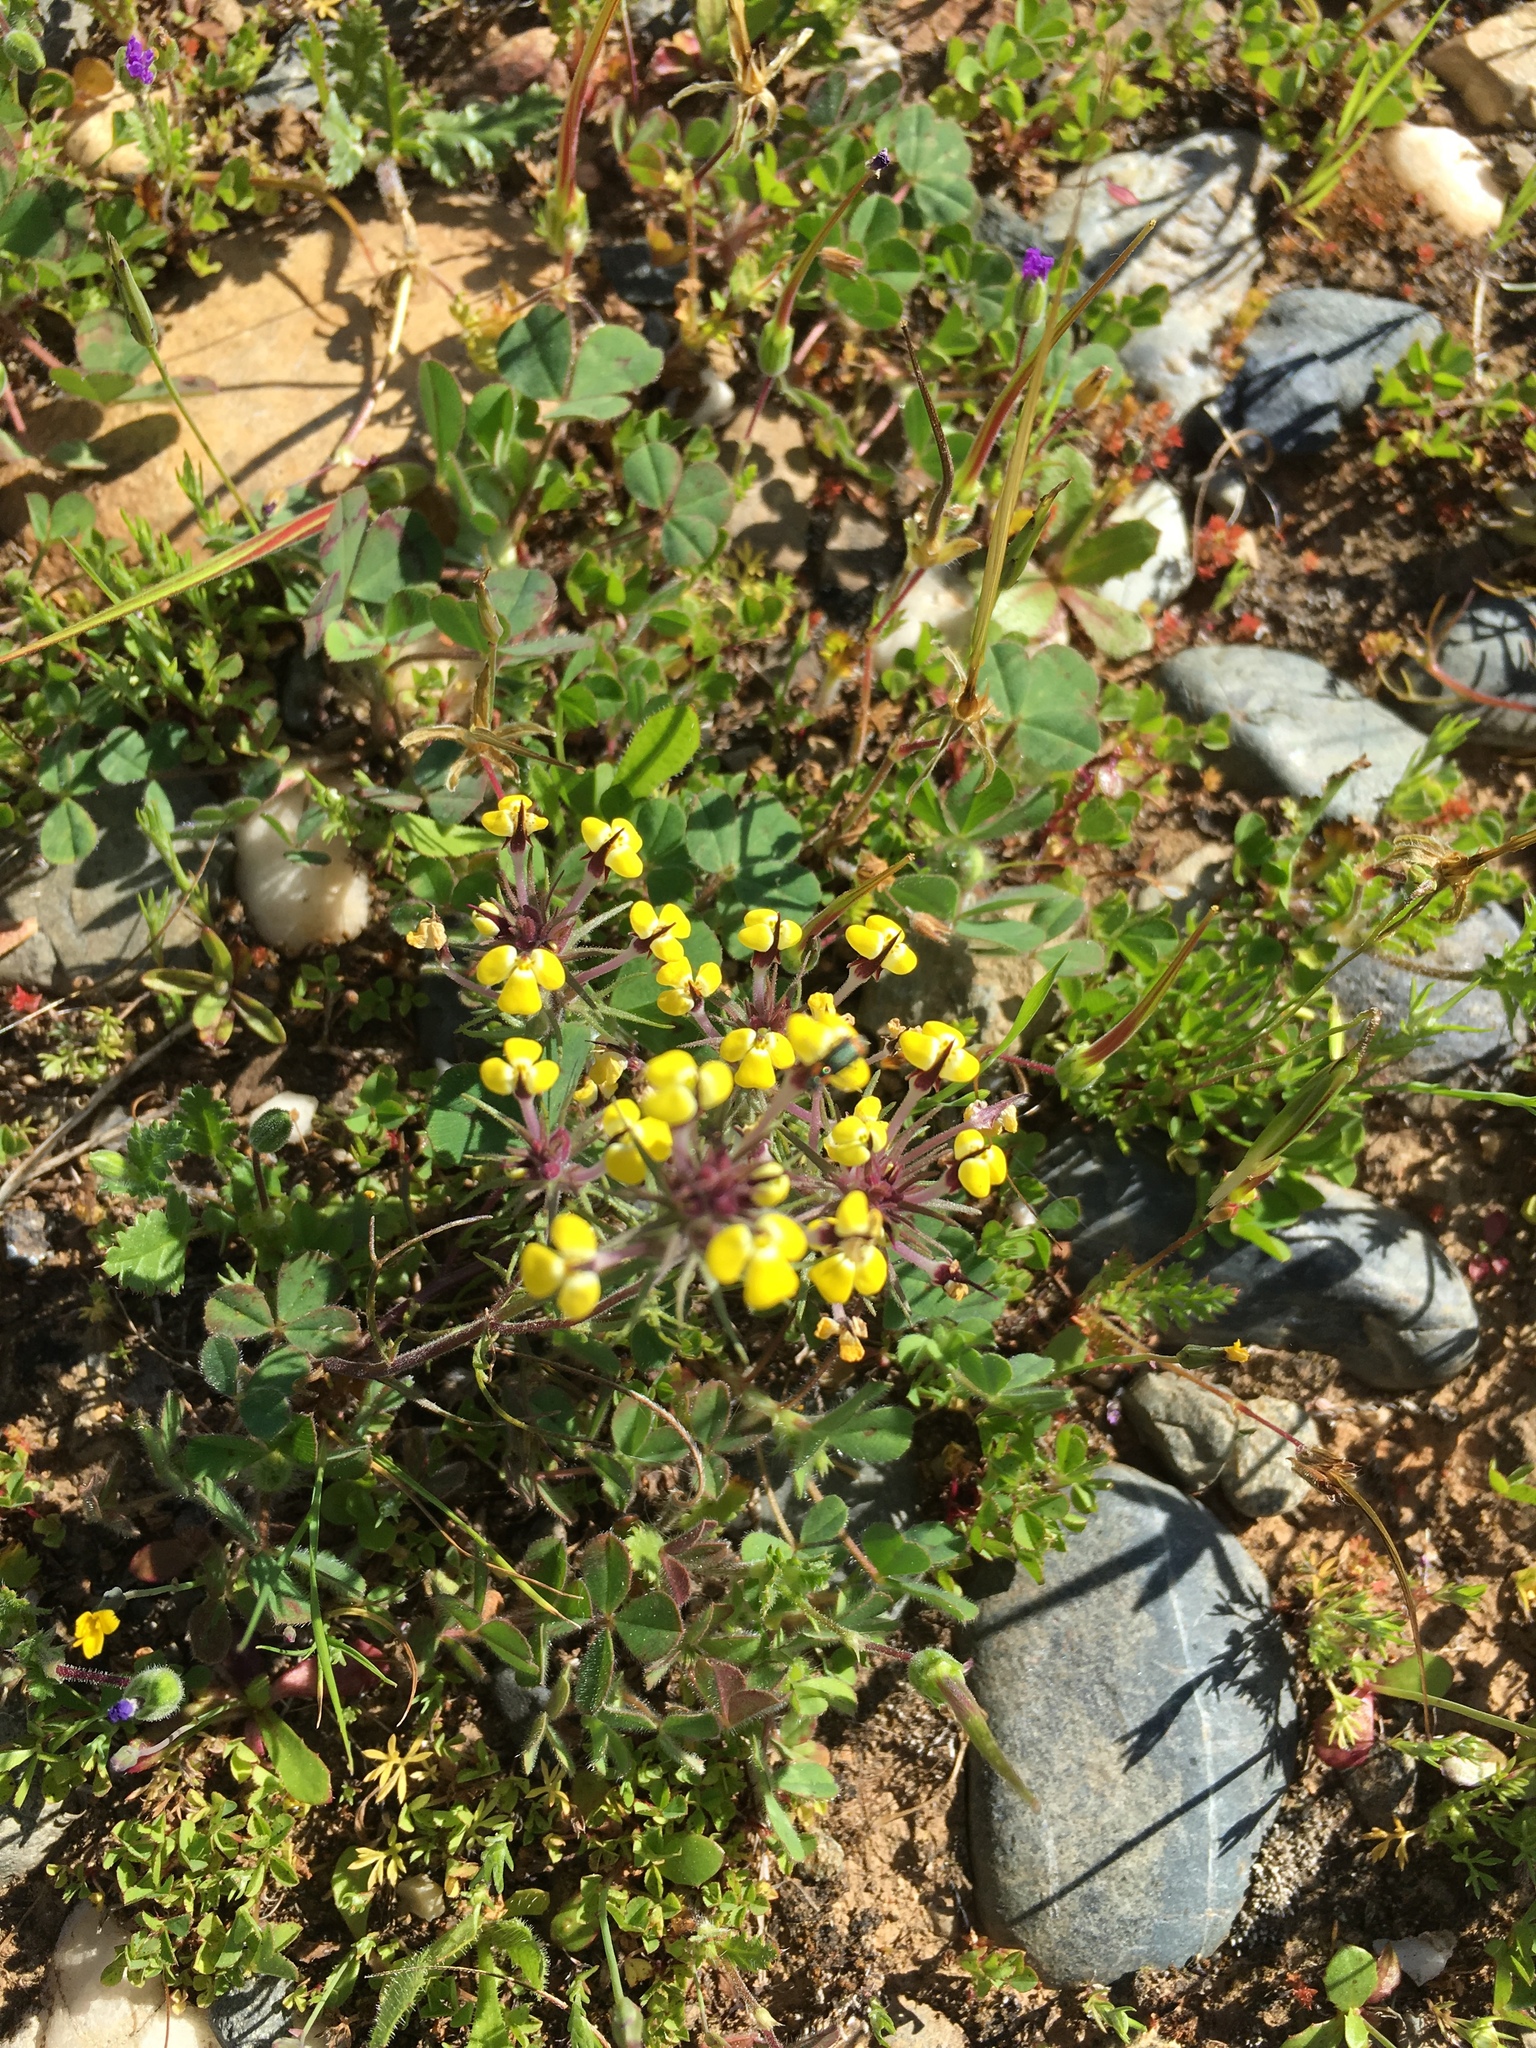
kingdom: Plantae
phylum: Tracheophyta
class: Magnoliopsida
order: Lamiales
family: Orobanchaceae
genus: Triphysaria
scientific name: Triphysaria eriantha
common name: Johnny-tuck
